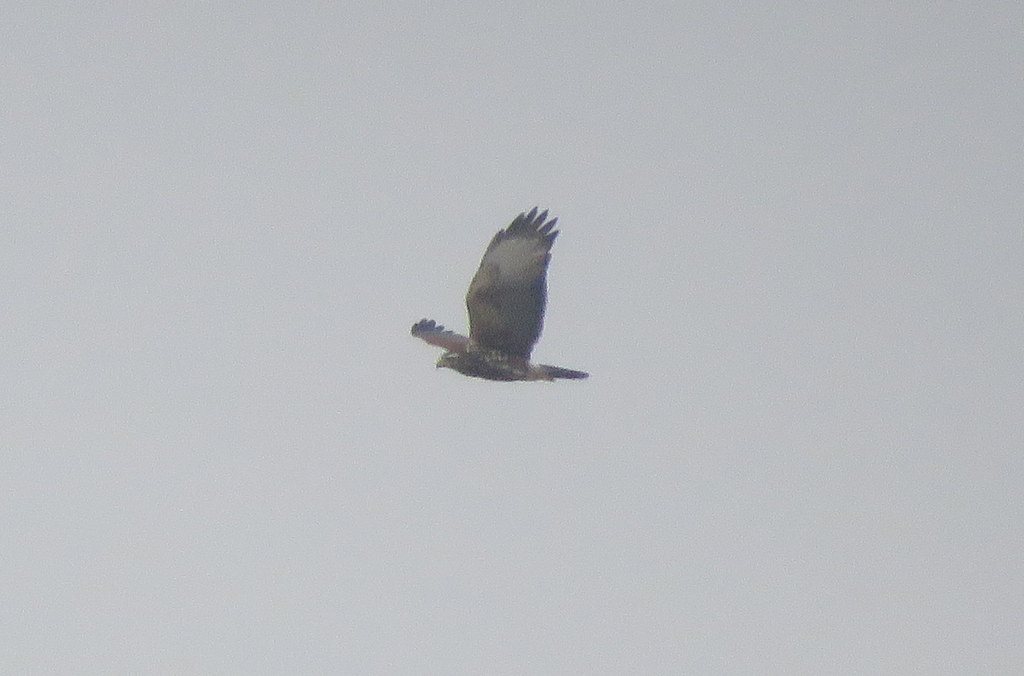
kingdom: Animalia
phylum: Chordata
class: Aves
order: Accipitriformes
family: Accipitridae
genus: Parabuteo
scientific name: Parabuteo unicinctus
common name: Harris's hawk
